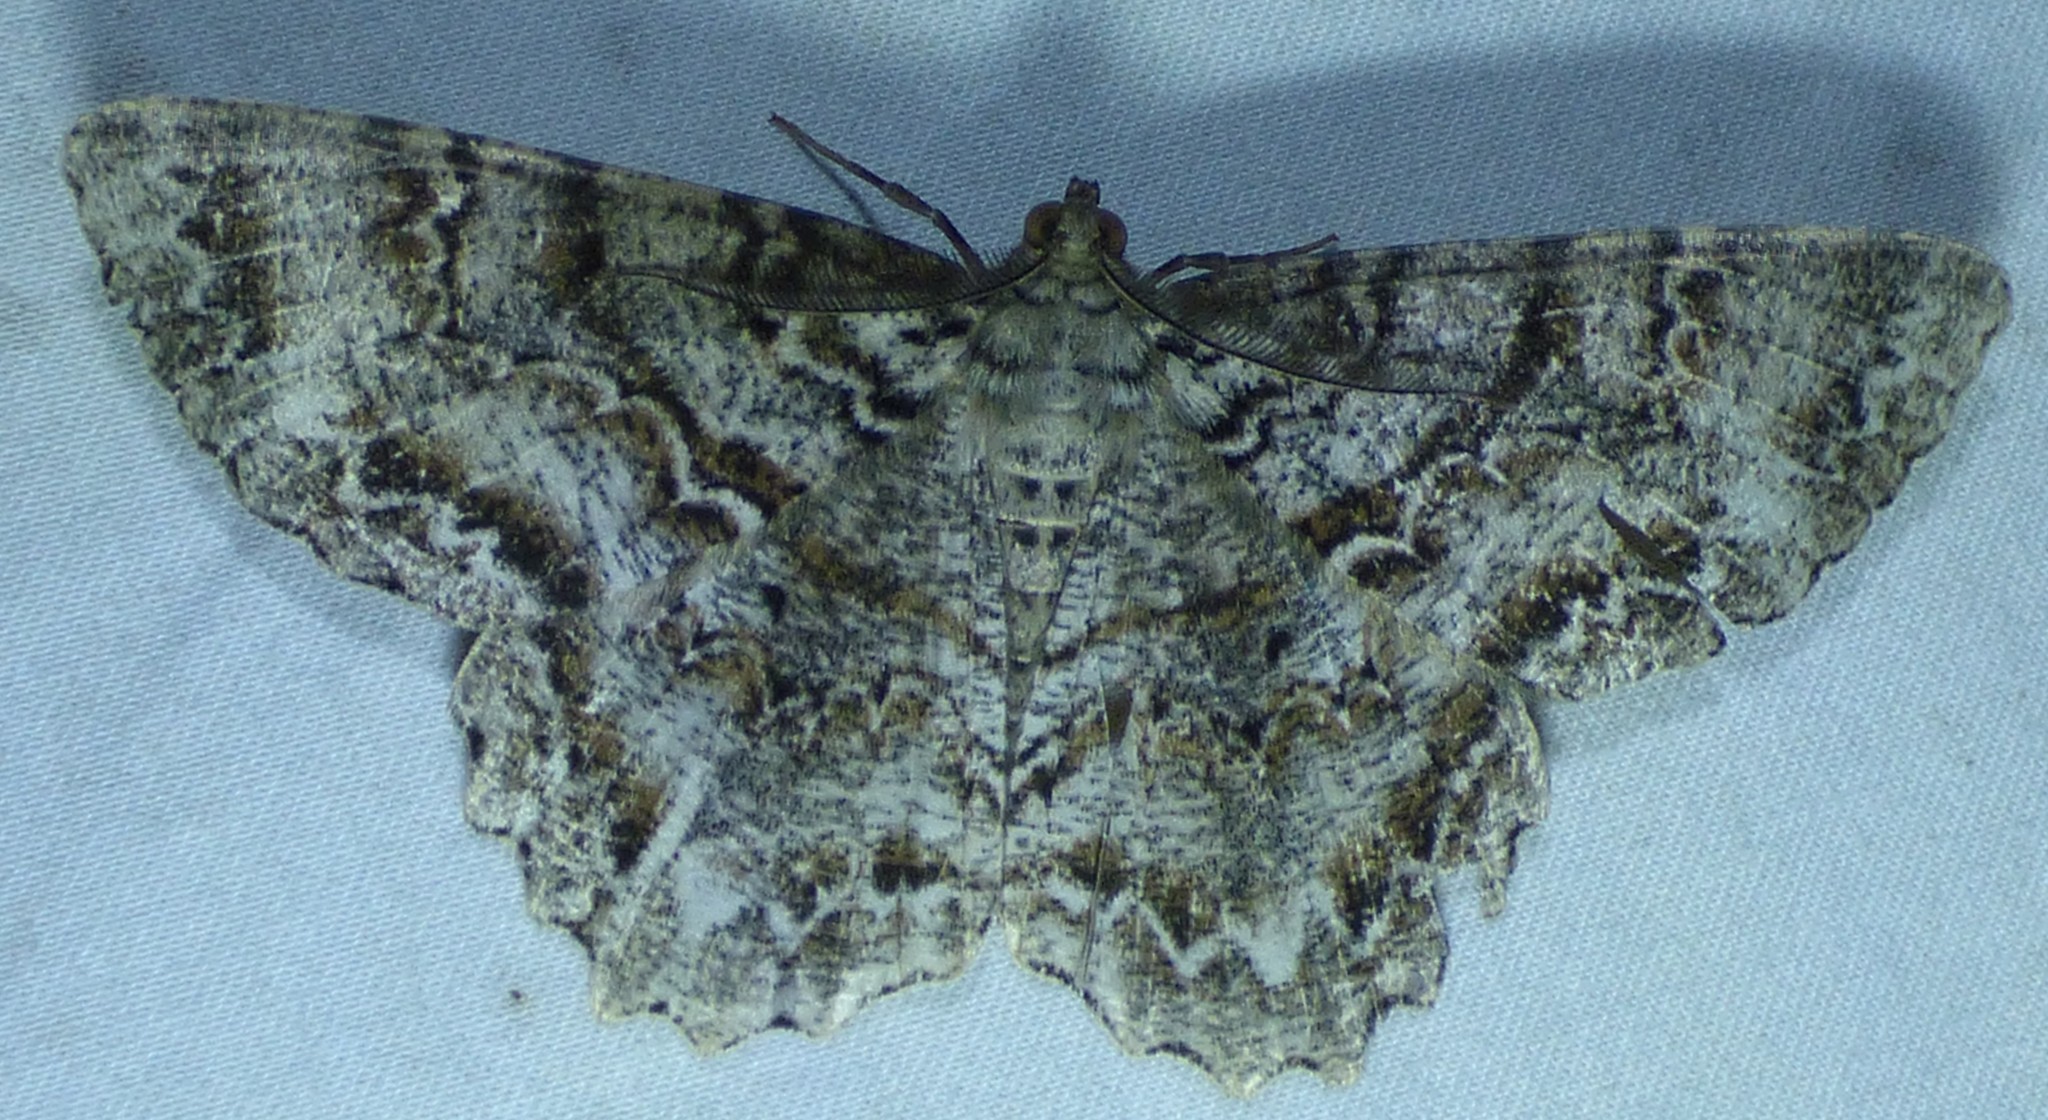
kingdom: Animalia
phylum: Arthropoda
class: Insecta
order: Lepidoptera
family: Geometridae
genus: Epimecis
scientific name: Epimecis hortaria
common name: Tulip-tree beauty
